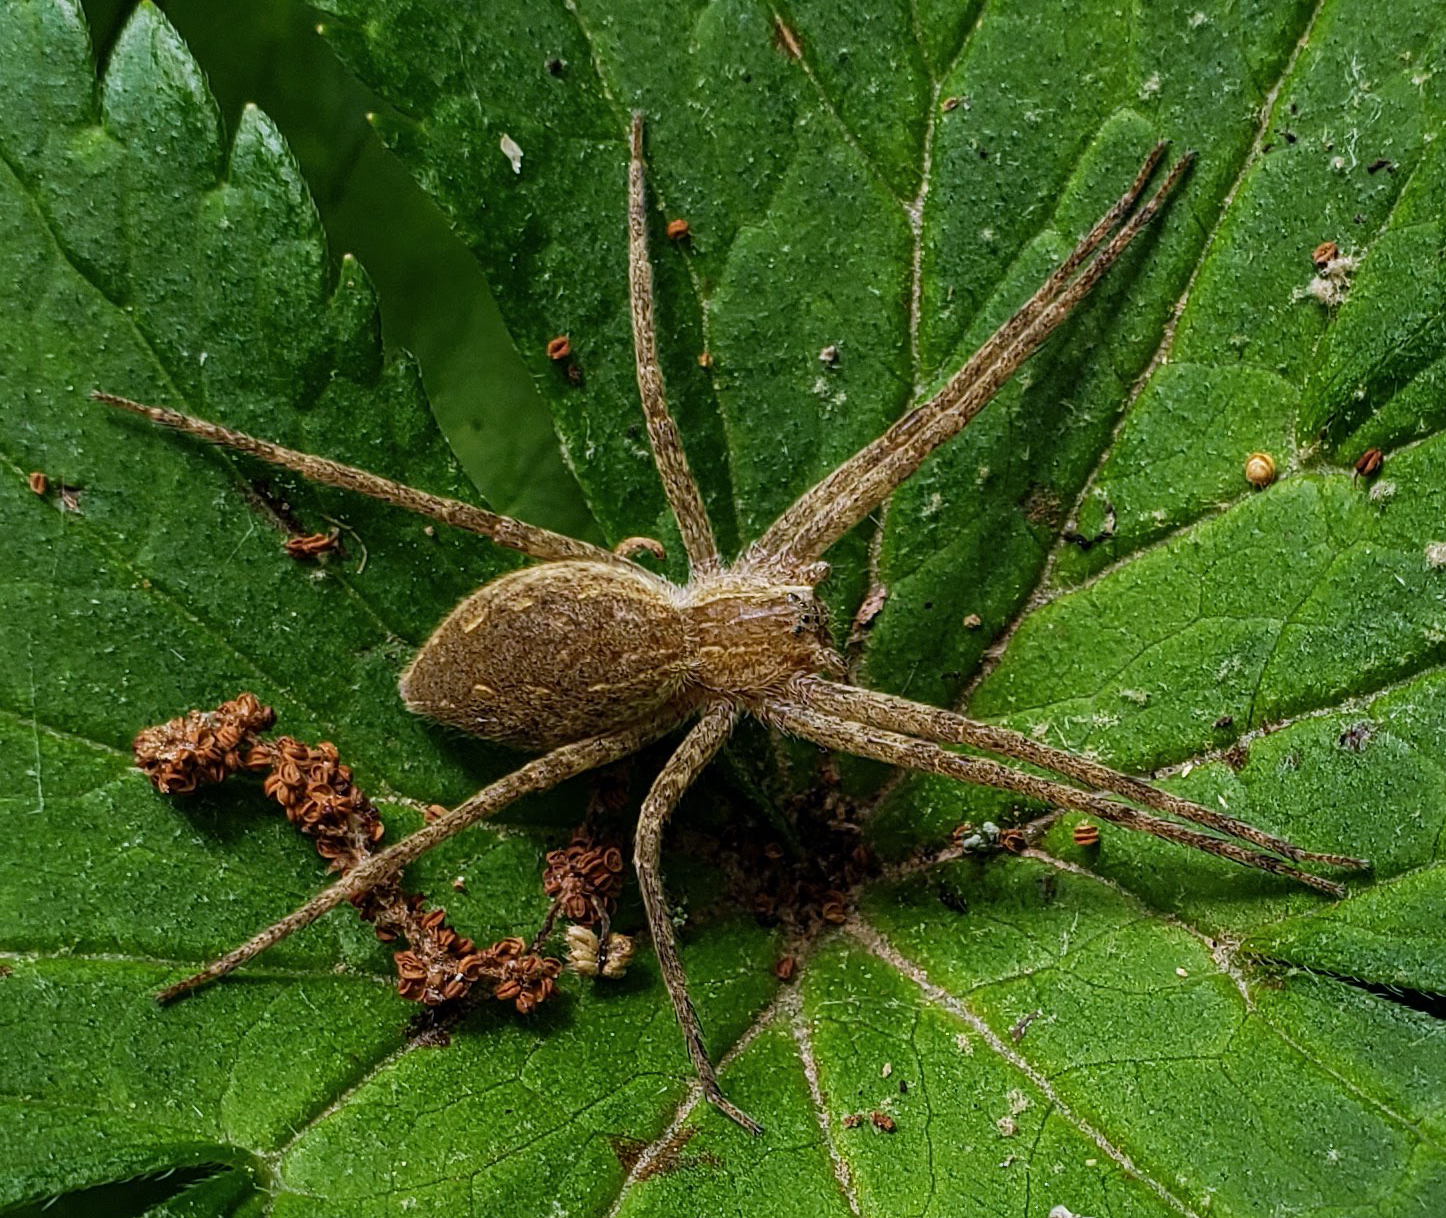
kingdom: Animalia
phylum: Arthropoda
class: Arachnida
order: Araneae
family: Pisauridae
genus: Pisaurina
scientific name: Pisaurina mira
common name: American nursery web spider
